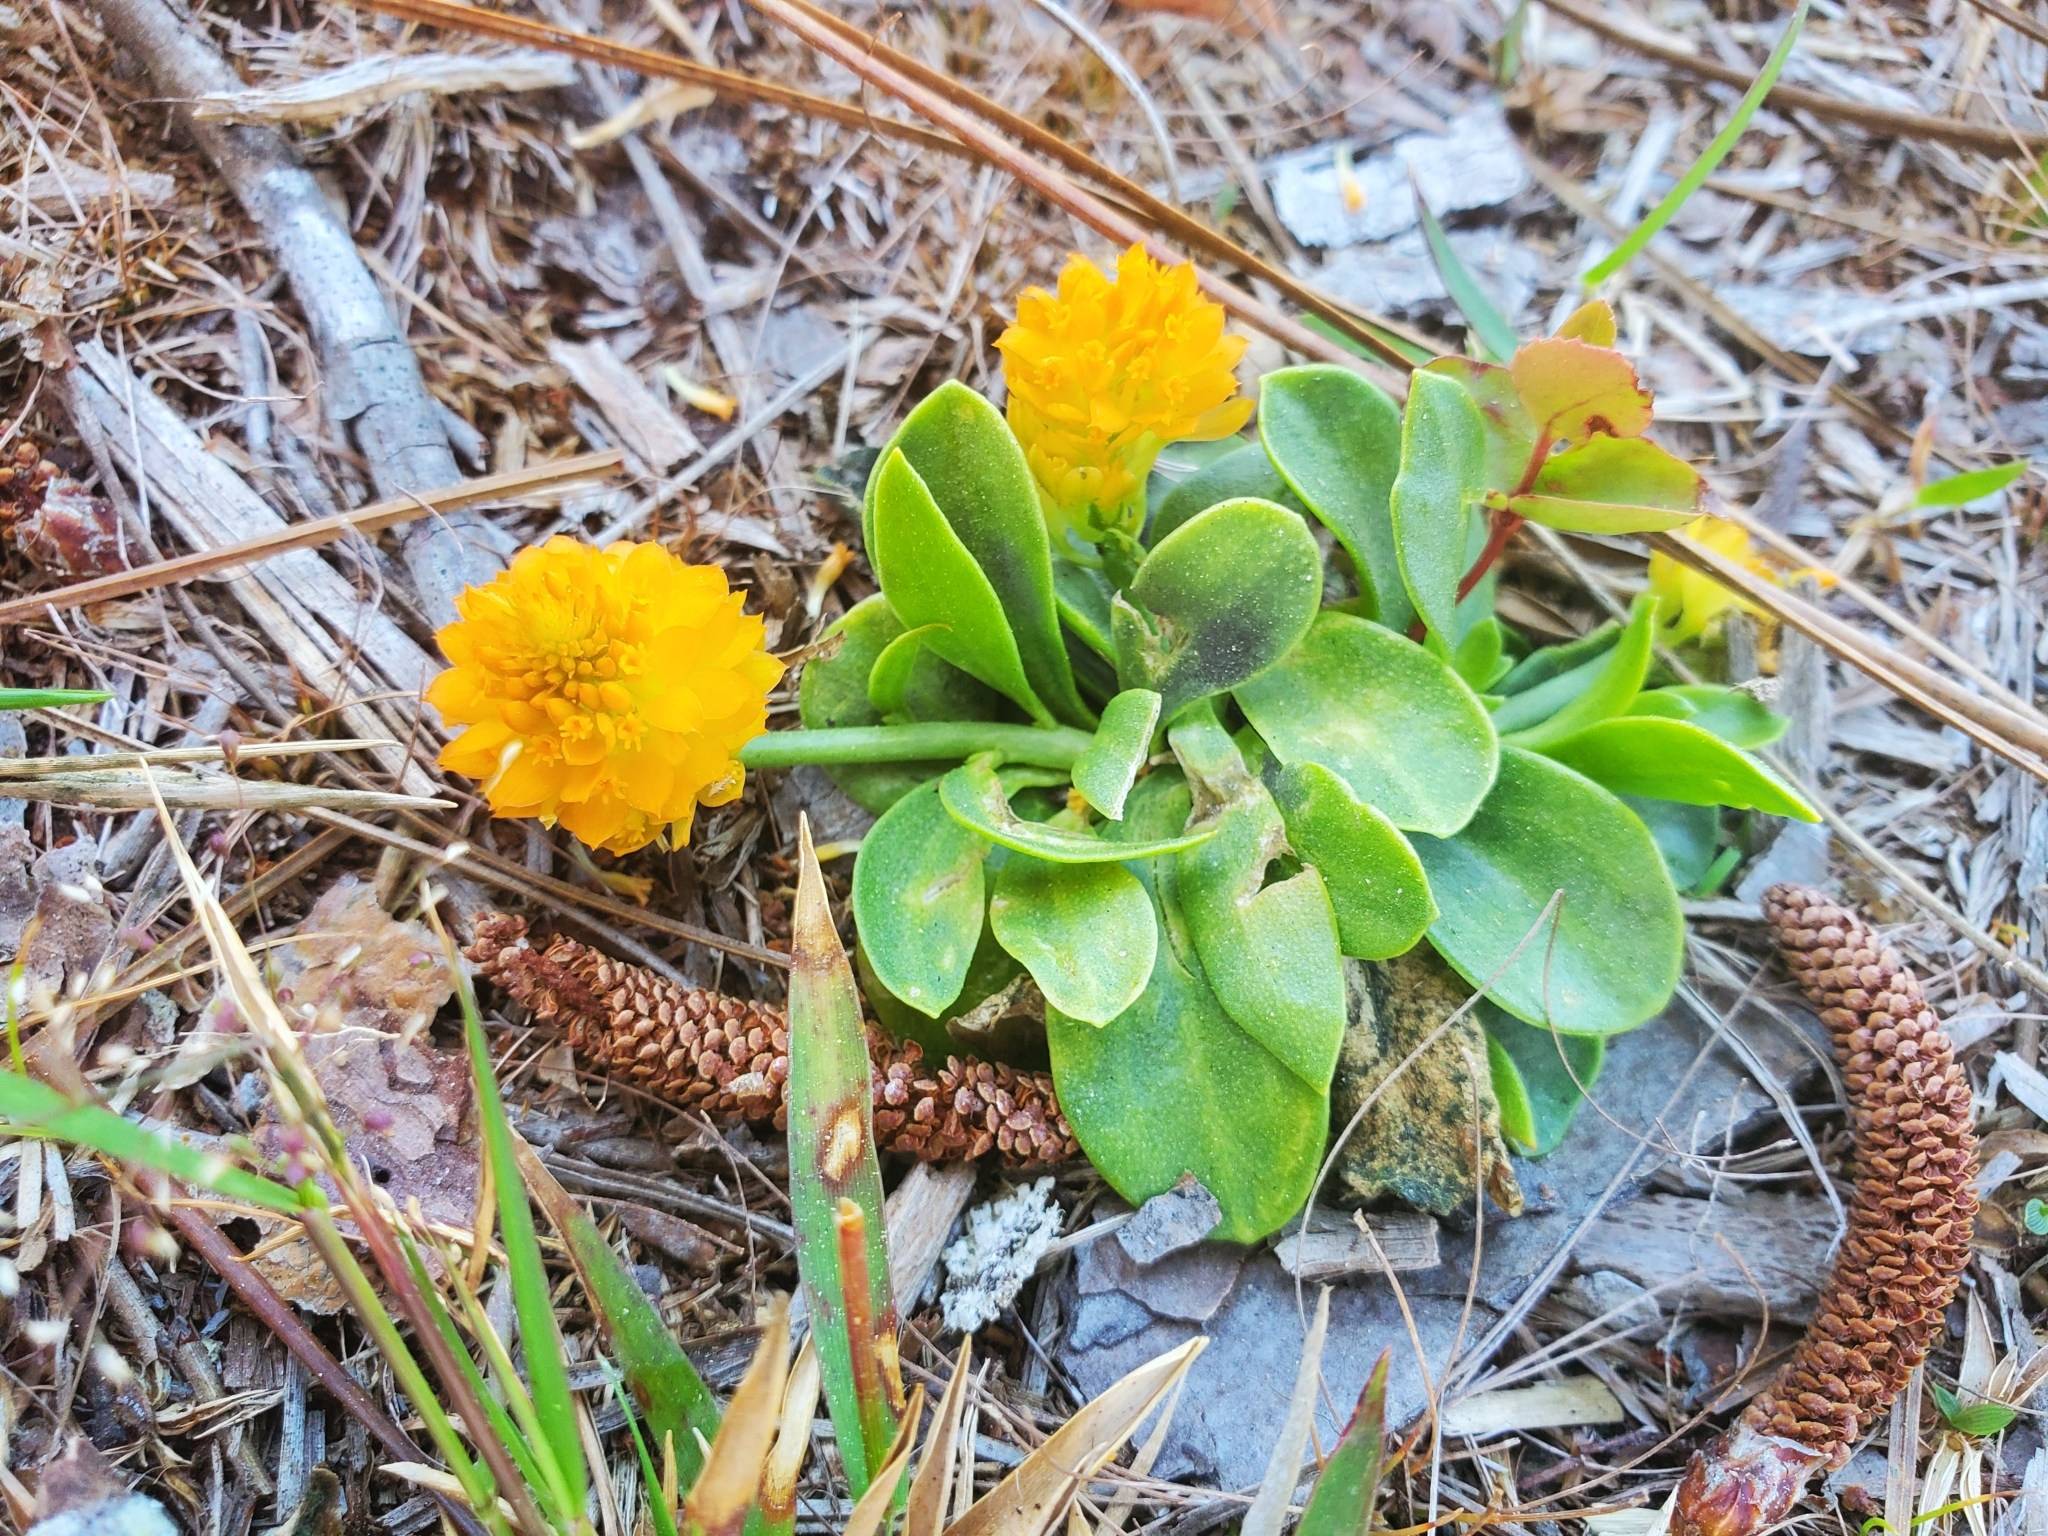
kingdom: Plantae
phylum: Tracheophyta
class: Magnoliopsida
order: Fabales
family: Polygalaceae
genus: Polygala
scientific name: Polygala lutea
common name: Orange milkwort
